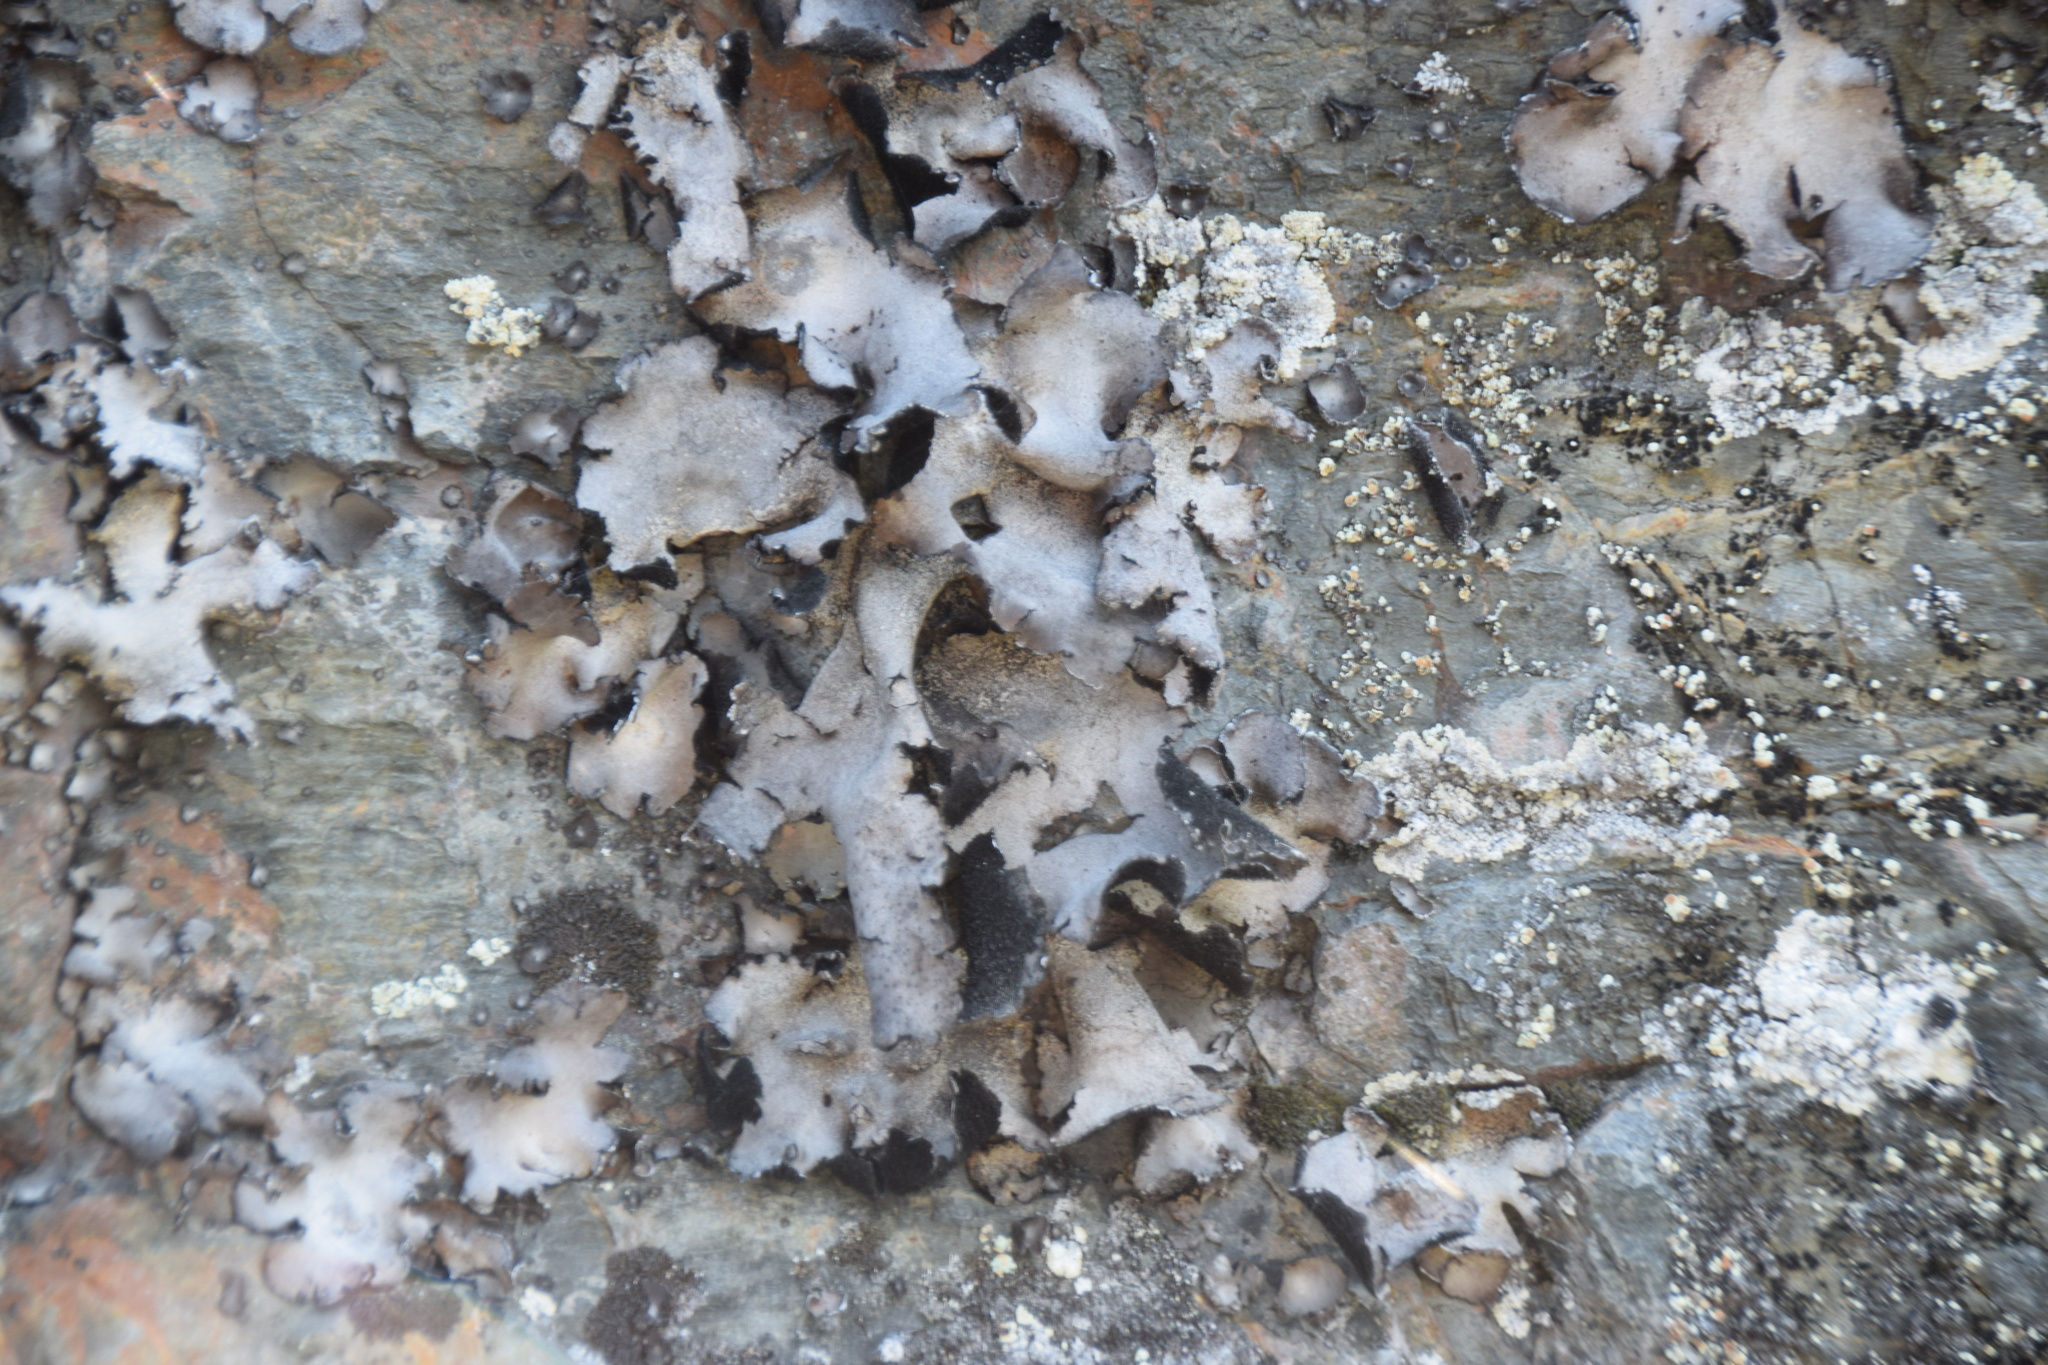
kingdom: Fungi
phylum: Ascomycota
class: Lecanoromycetes
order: Umbilicariales
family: Umbilicariaceae
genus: Umbilicaria
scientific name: Umbilicaria mammulata
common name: Smooth rock tripe
